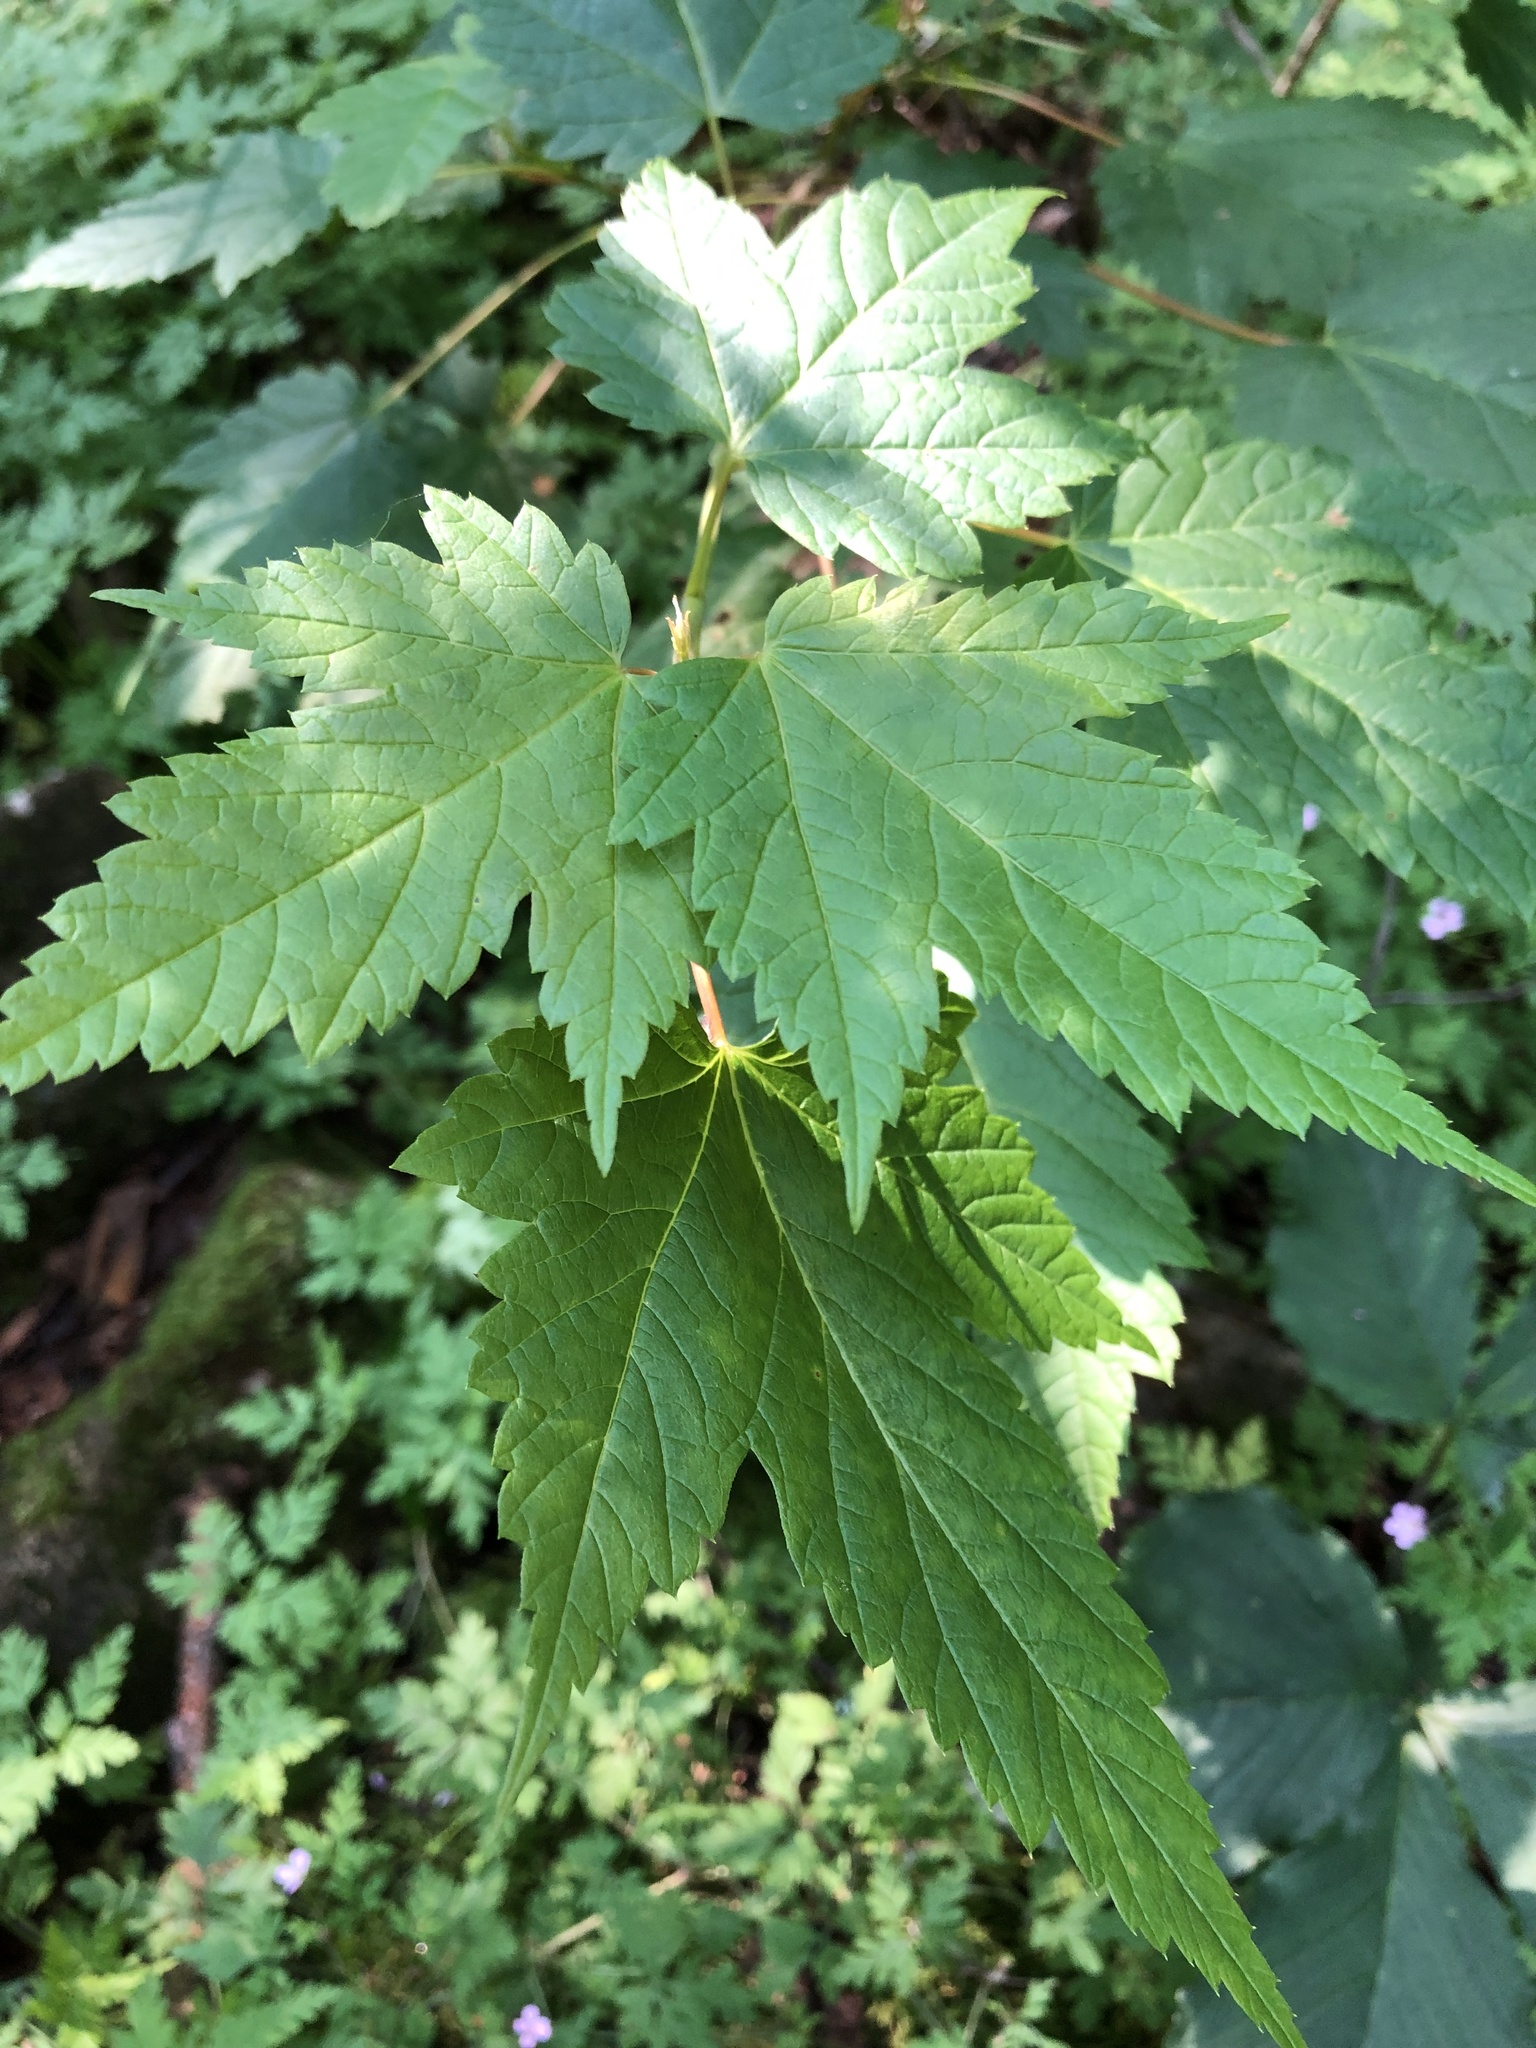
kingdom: Plantae
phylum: Tracheophyta
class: Magnoliopsida
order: Sapindales
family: Sapindaceae
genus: Acer
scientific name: Acer spicatum
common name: Mountain maple
